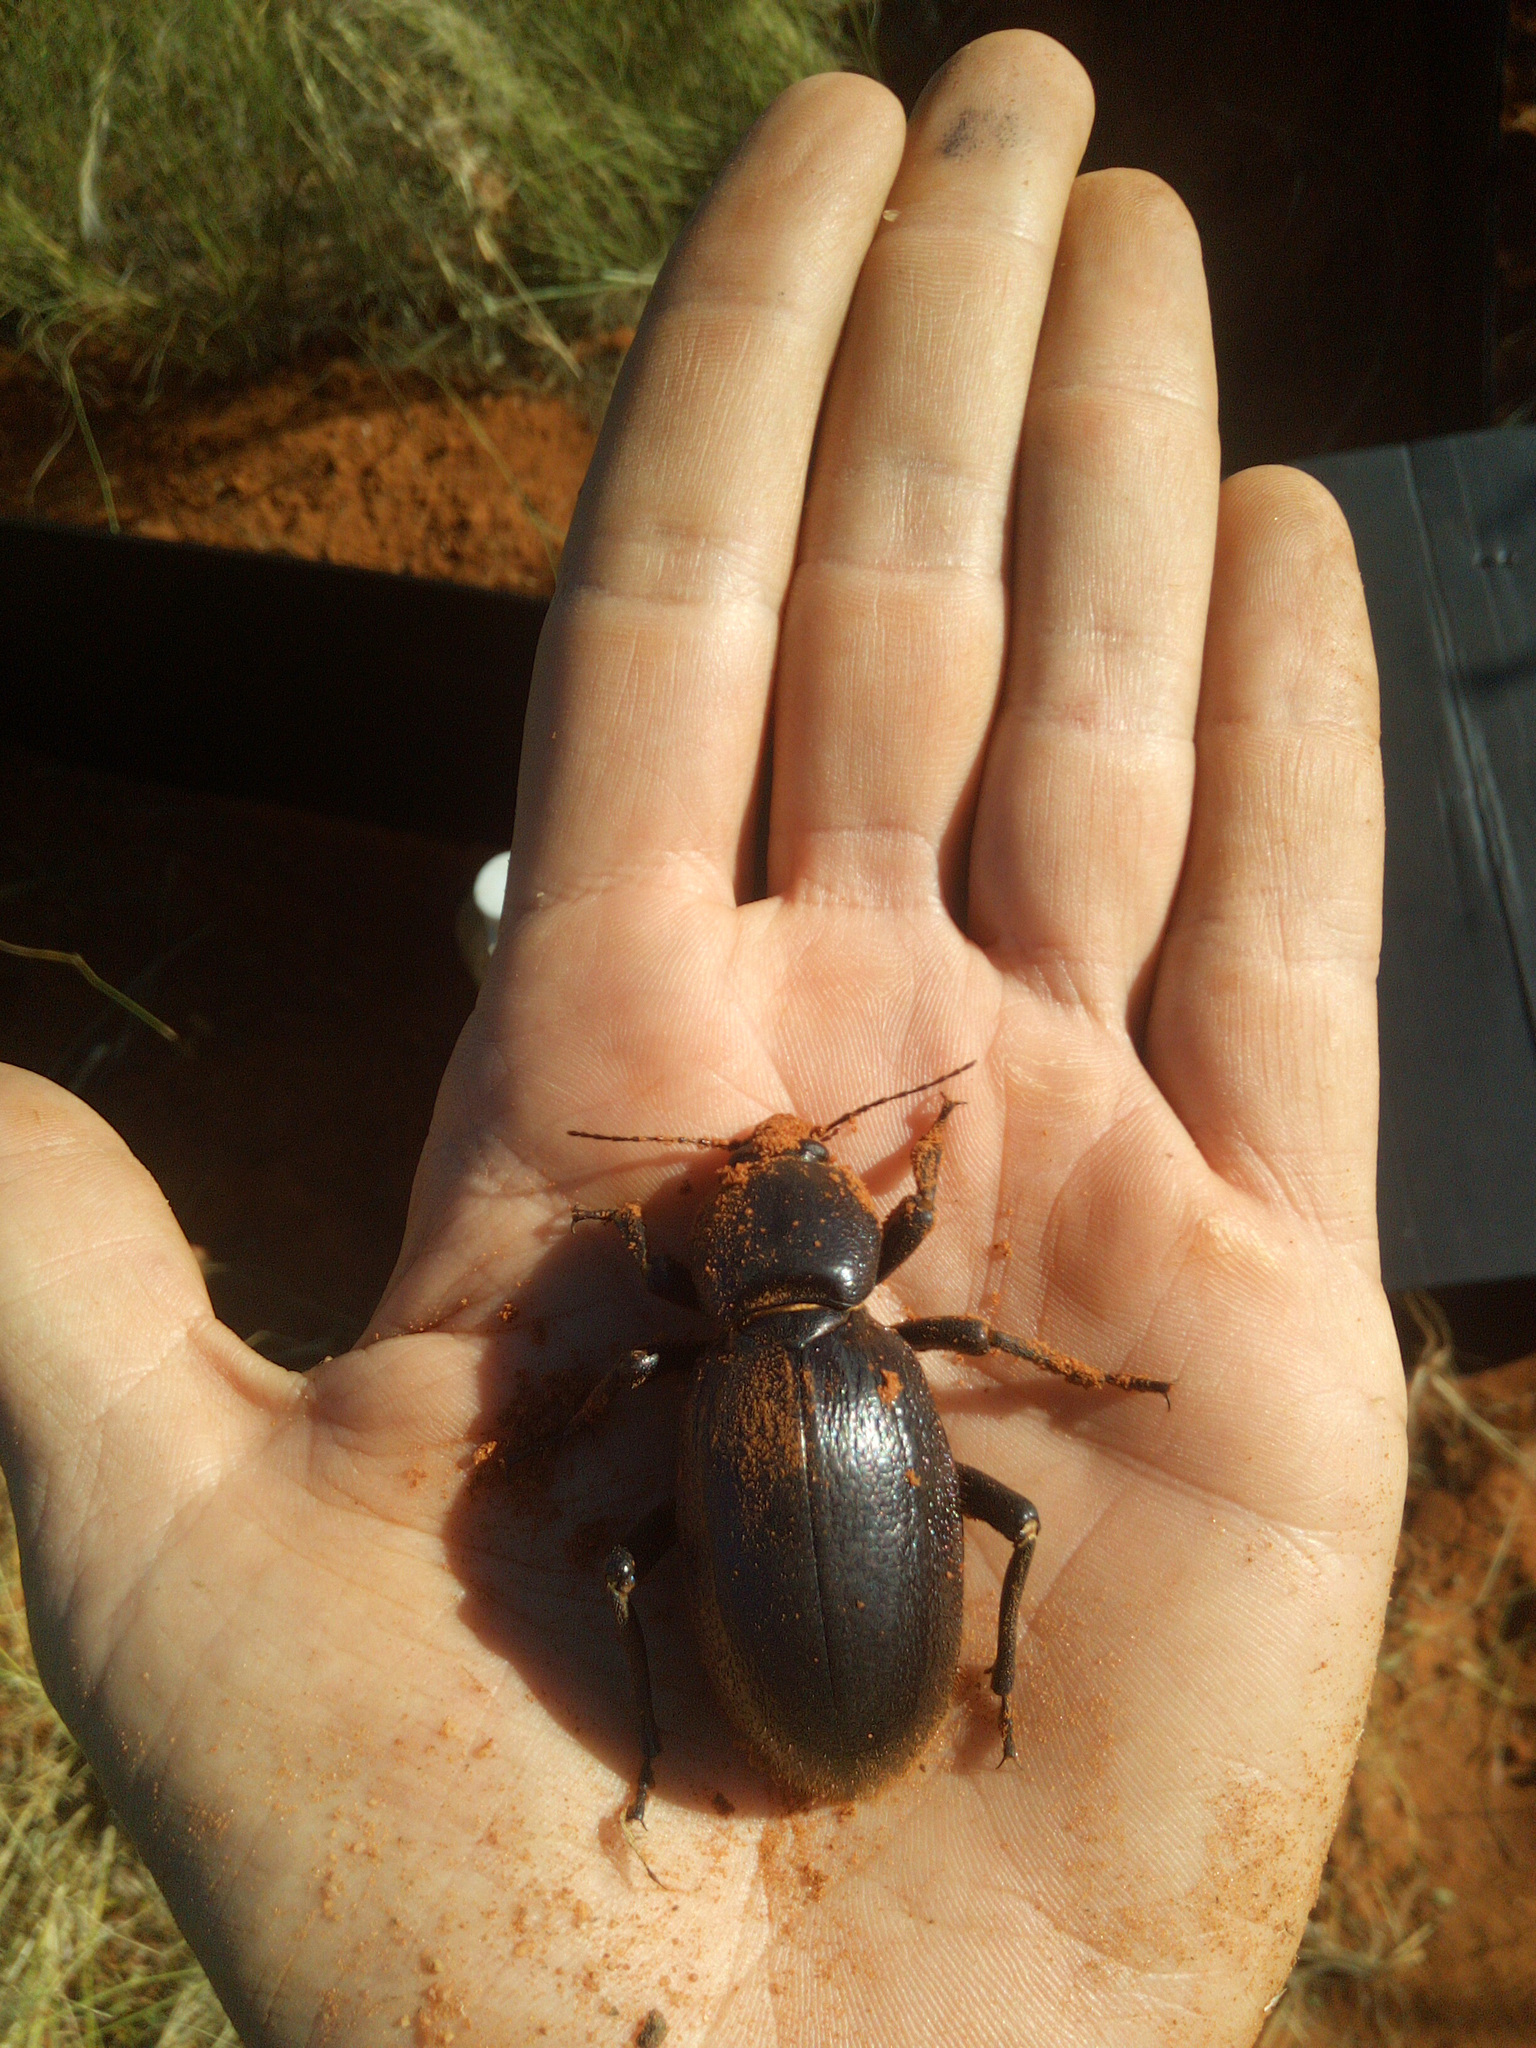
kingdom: Animalia
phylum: Arthropoda
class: Insecta
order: Coleoptera
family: Tenebrionidae
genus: Stridulomus
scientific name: Stridulomus sulcicollis
